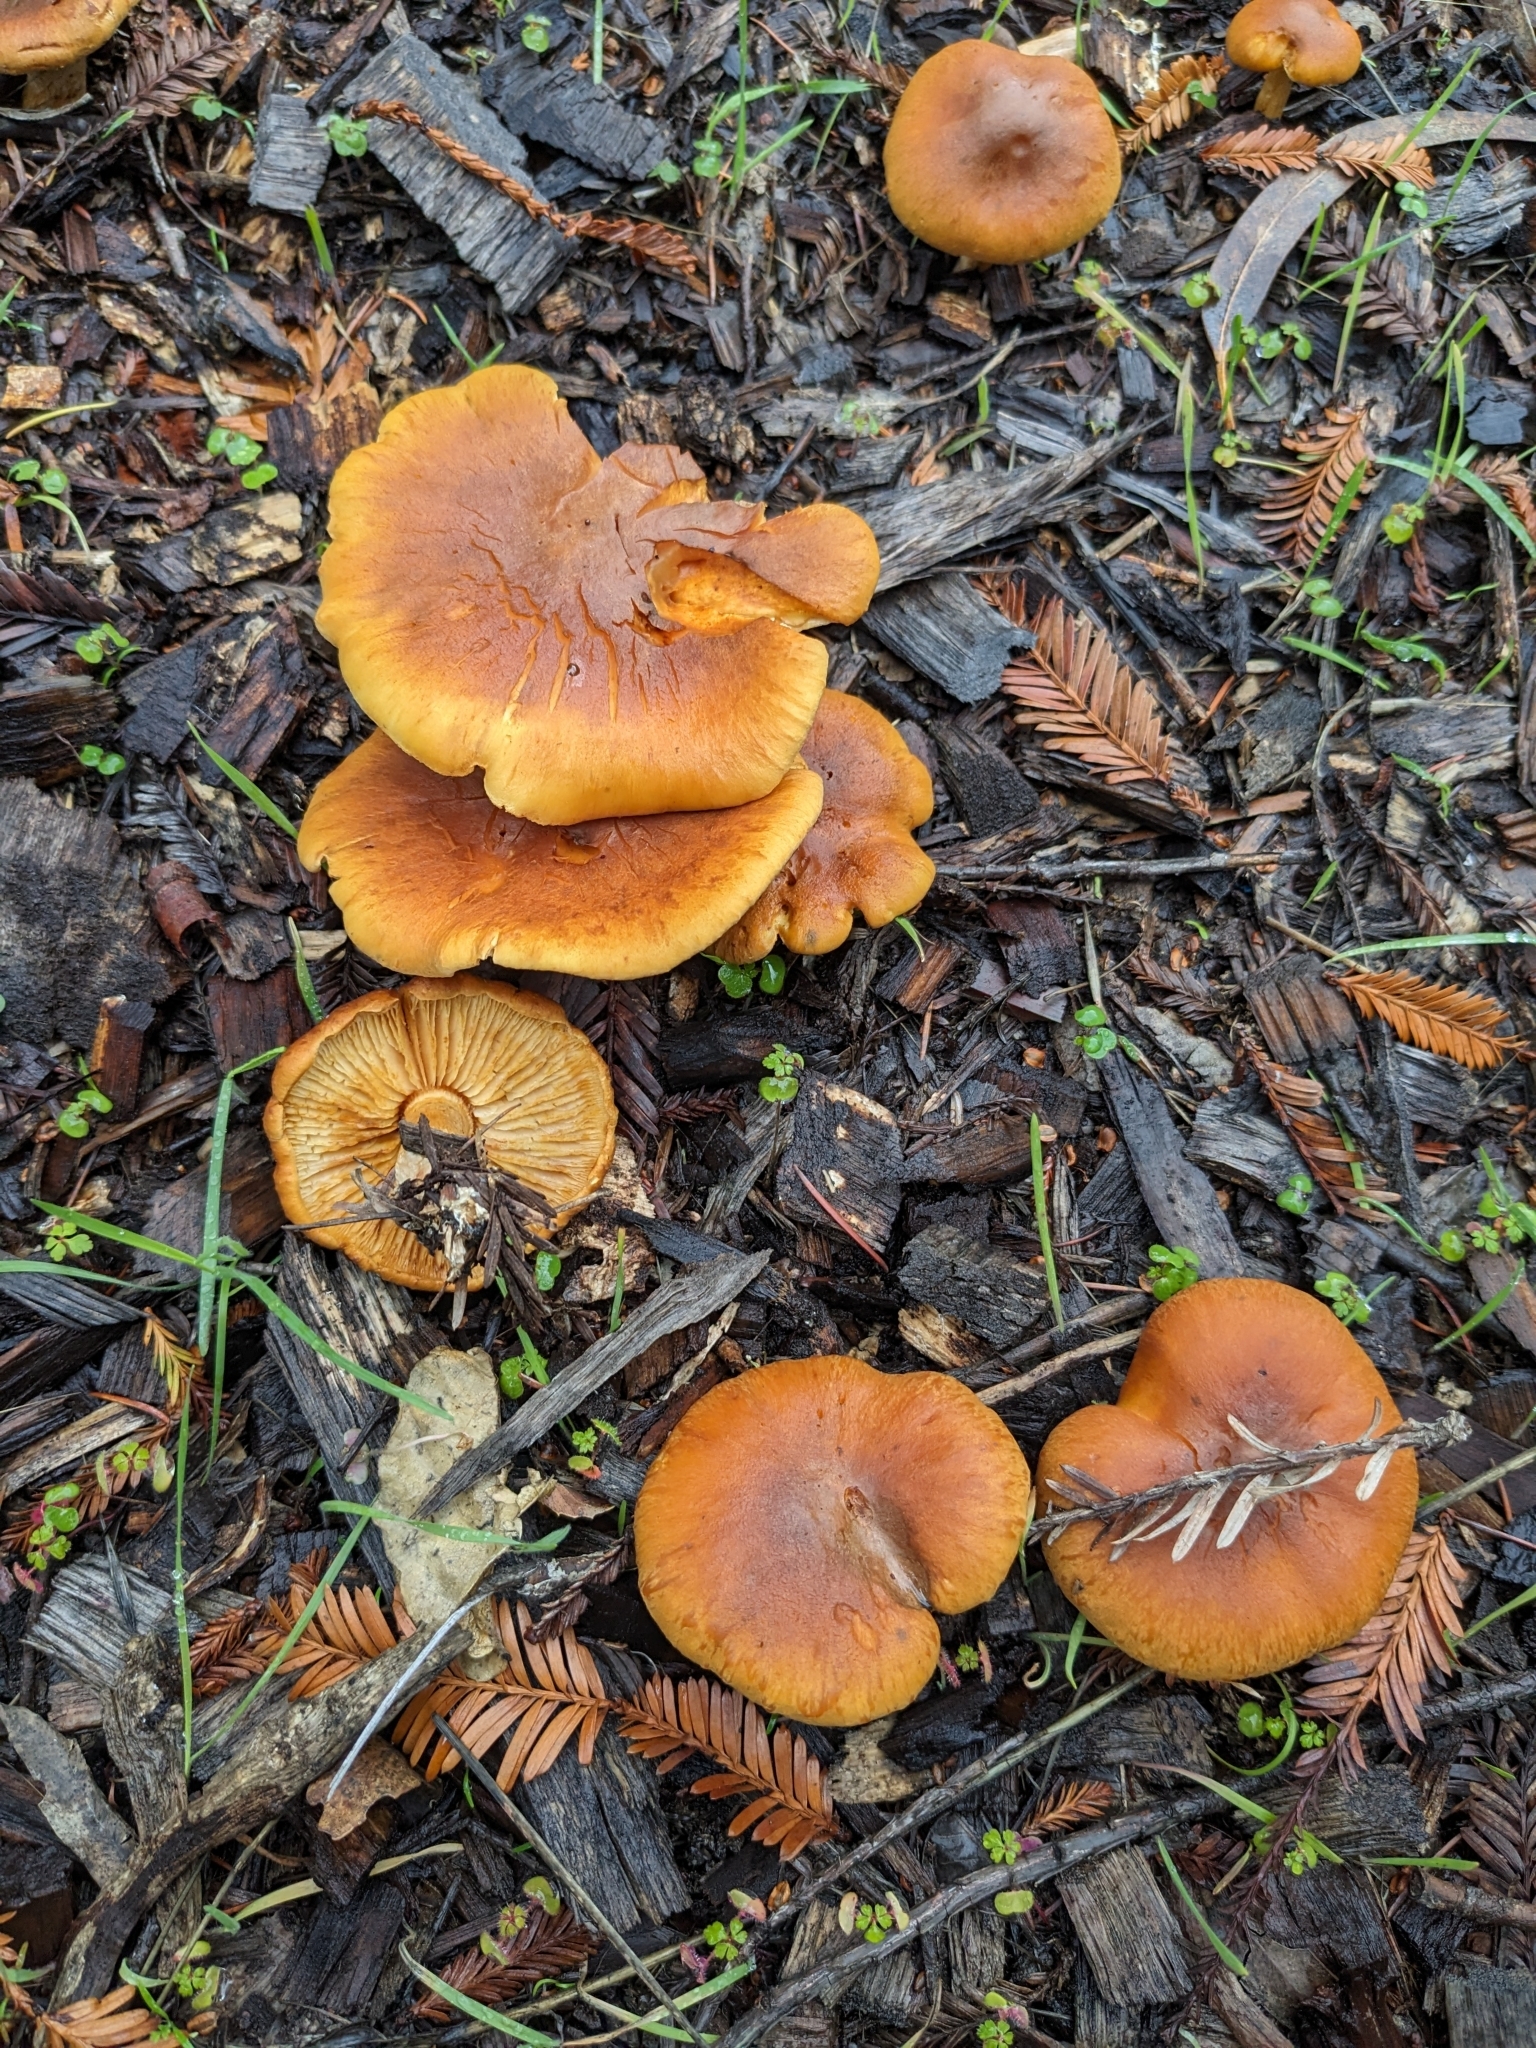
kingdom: Fungi
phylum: Basidiomycota
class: Agaricomycetes
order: Agaricales
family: Hymenogastraceae
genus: Gymnopilus
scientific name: Gymnopilus aurantiophyllus
